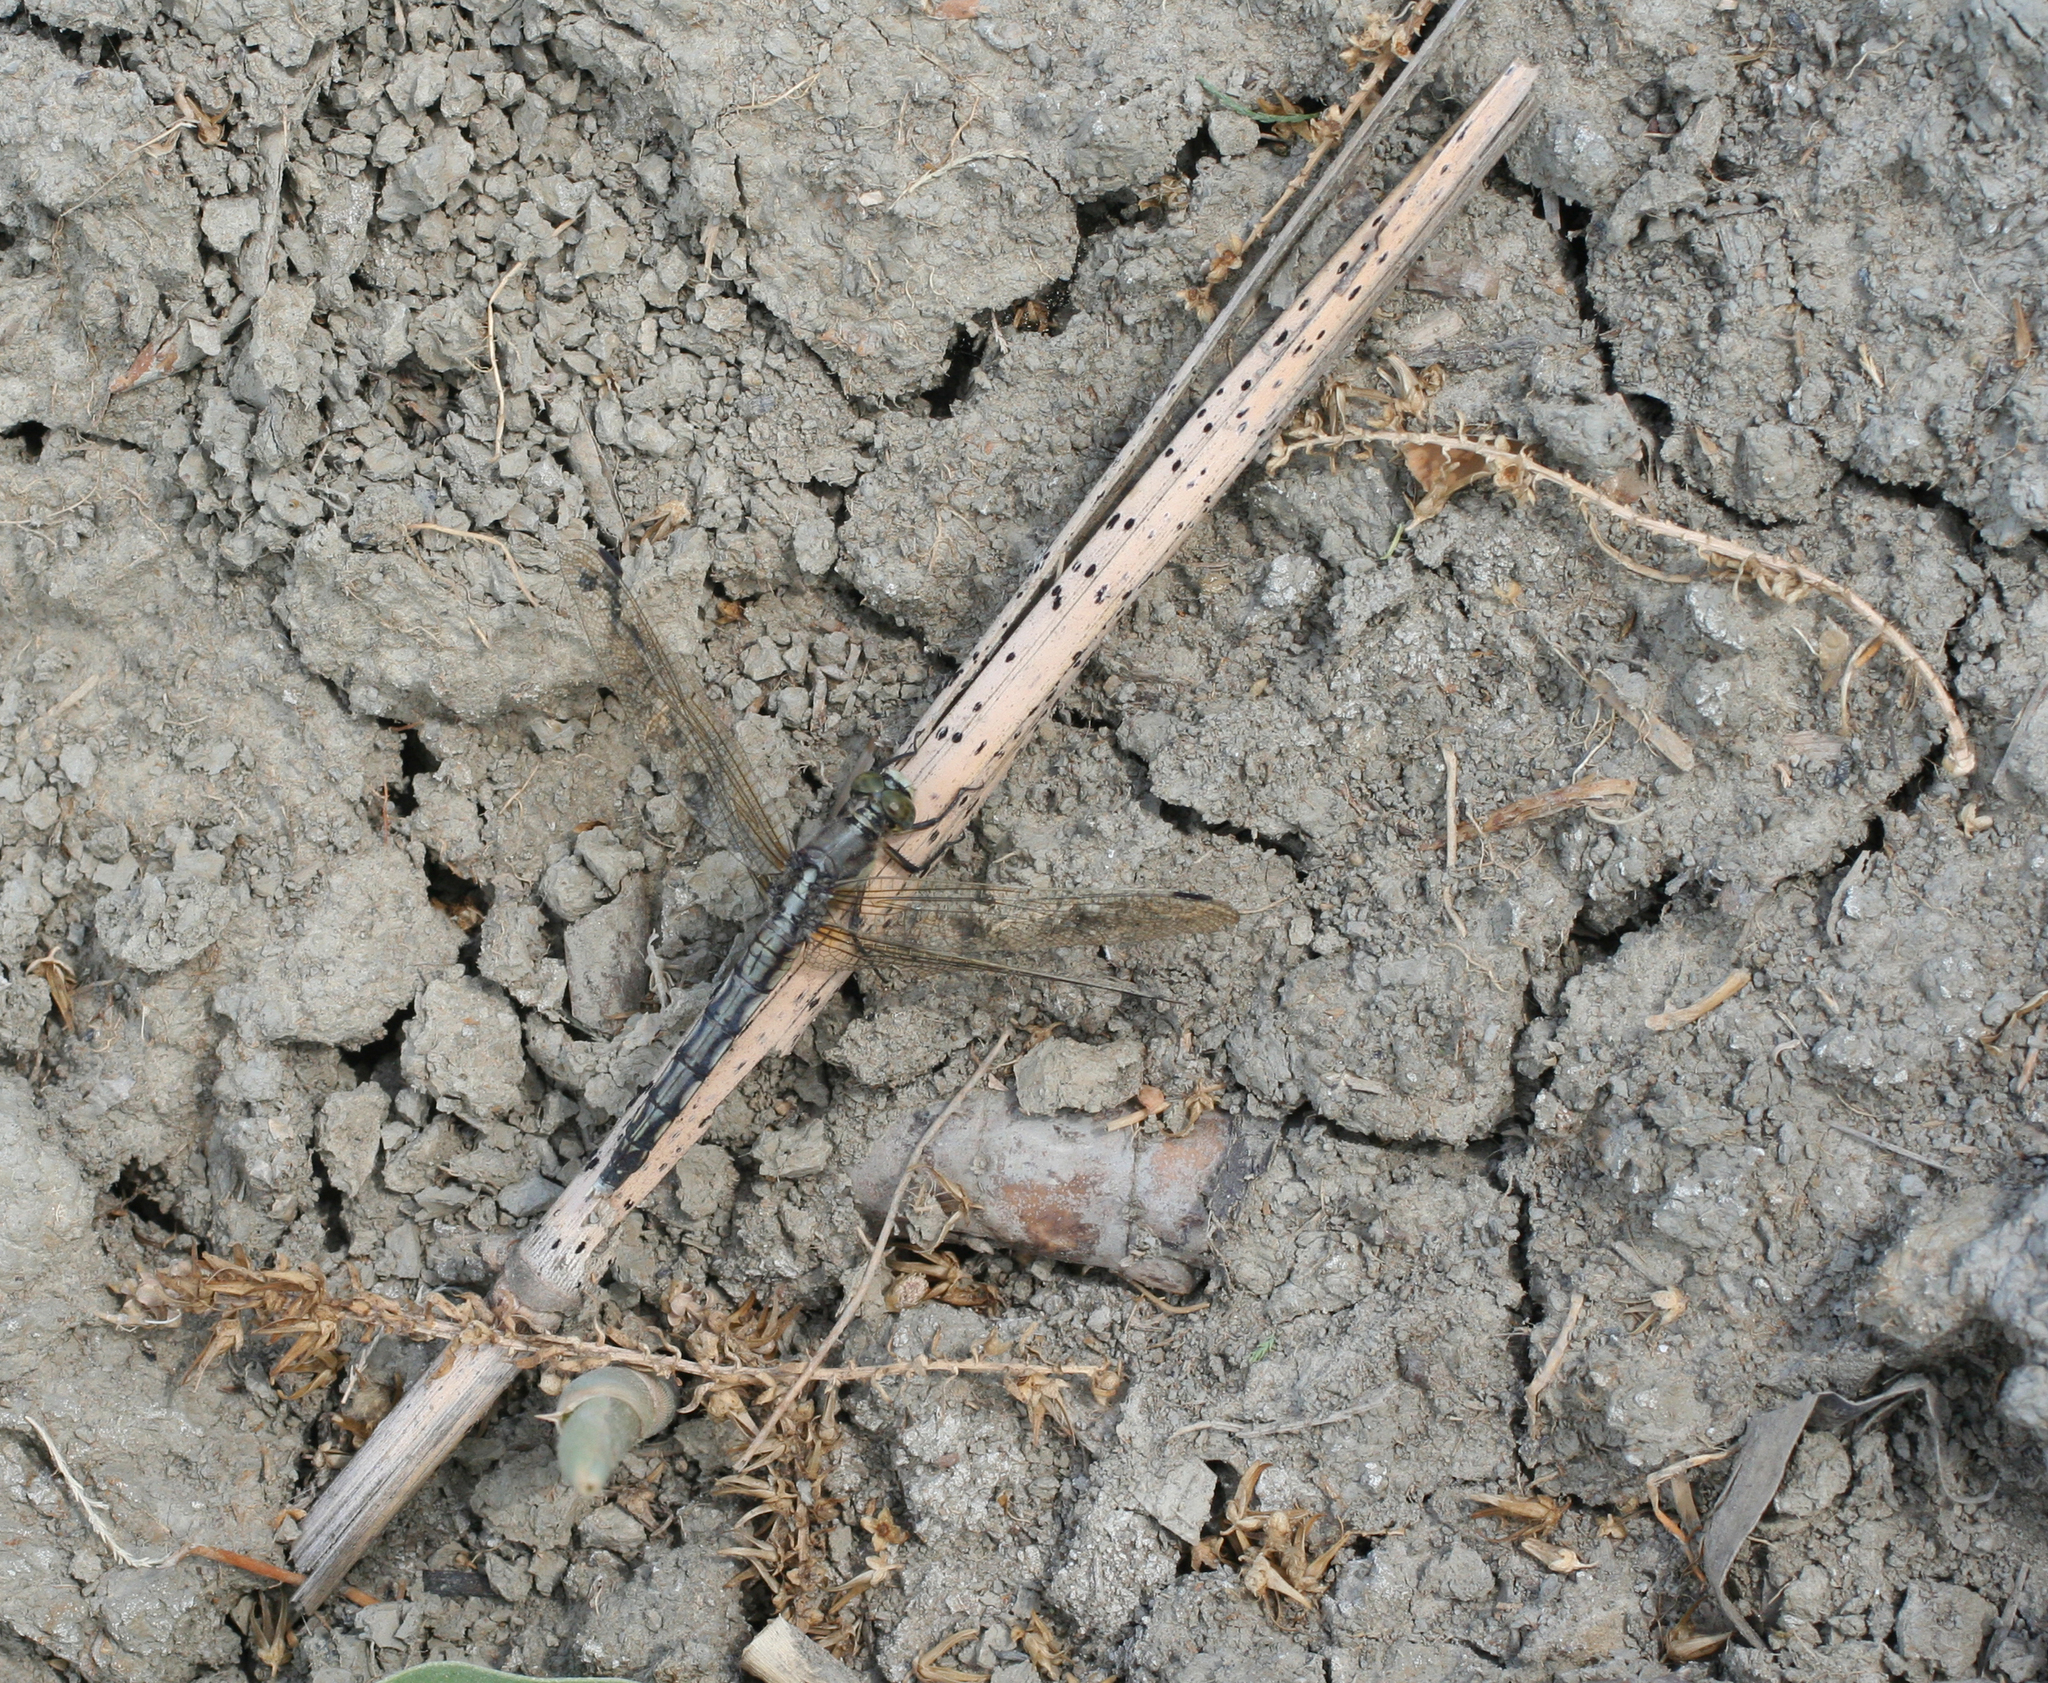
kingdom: Animalia
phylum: Arthropoda
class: Insecta
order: Odonata
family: Libellulidae
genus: Orthetrum
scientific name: Orthetrum albistylum
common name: White-tailed skimmer
